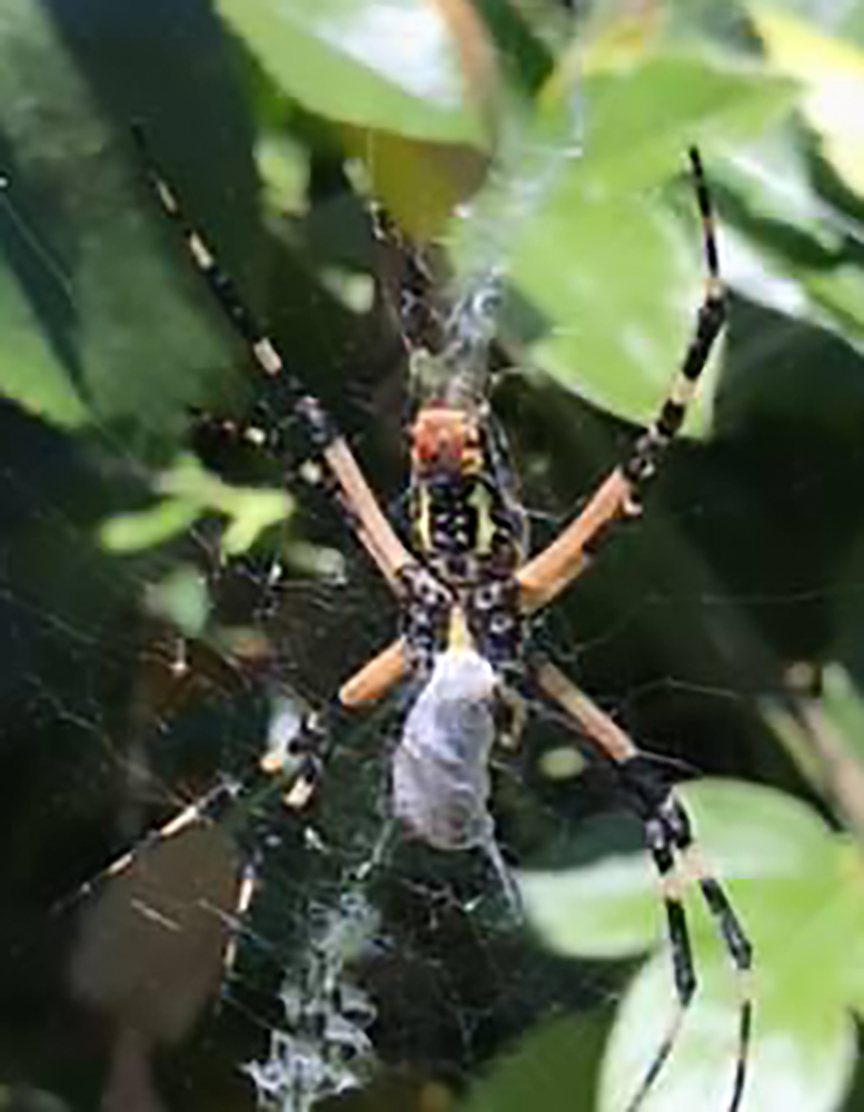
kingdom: Animalia
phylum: Arthropoda
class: Arachnida
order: Araneae
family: Araneidae
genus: Argiope
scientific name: Argiope aurantia
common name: Orb weavers
